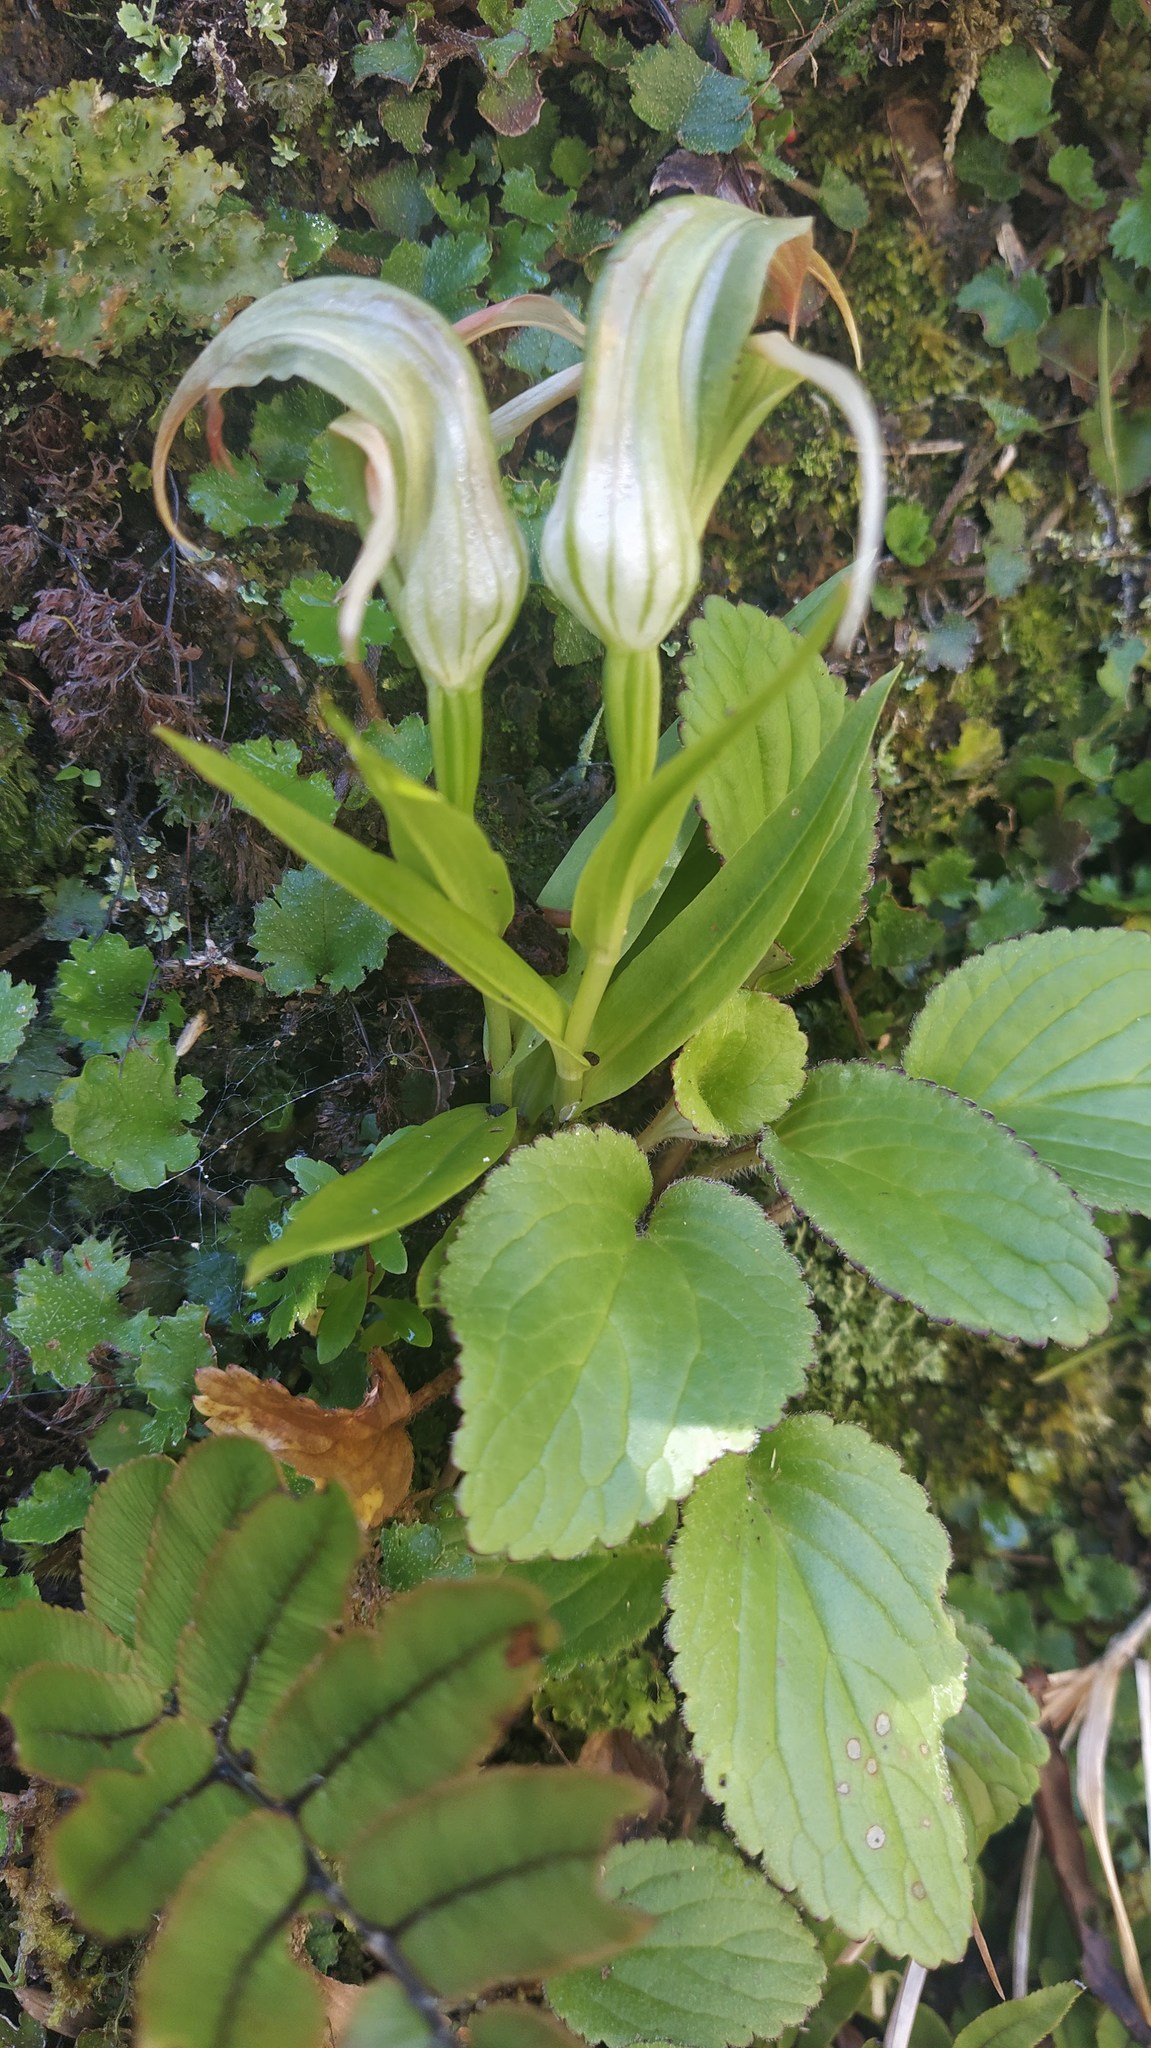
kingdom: Plantae
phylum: Tracheophyta
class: Liliopsida
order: Asparagales
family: Orchidaceae
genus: Pterostylis
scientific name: Pterostylis patens
